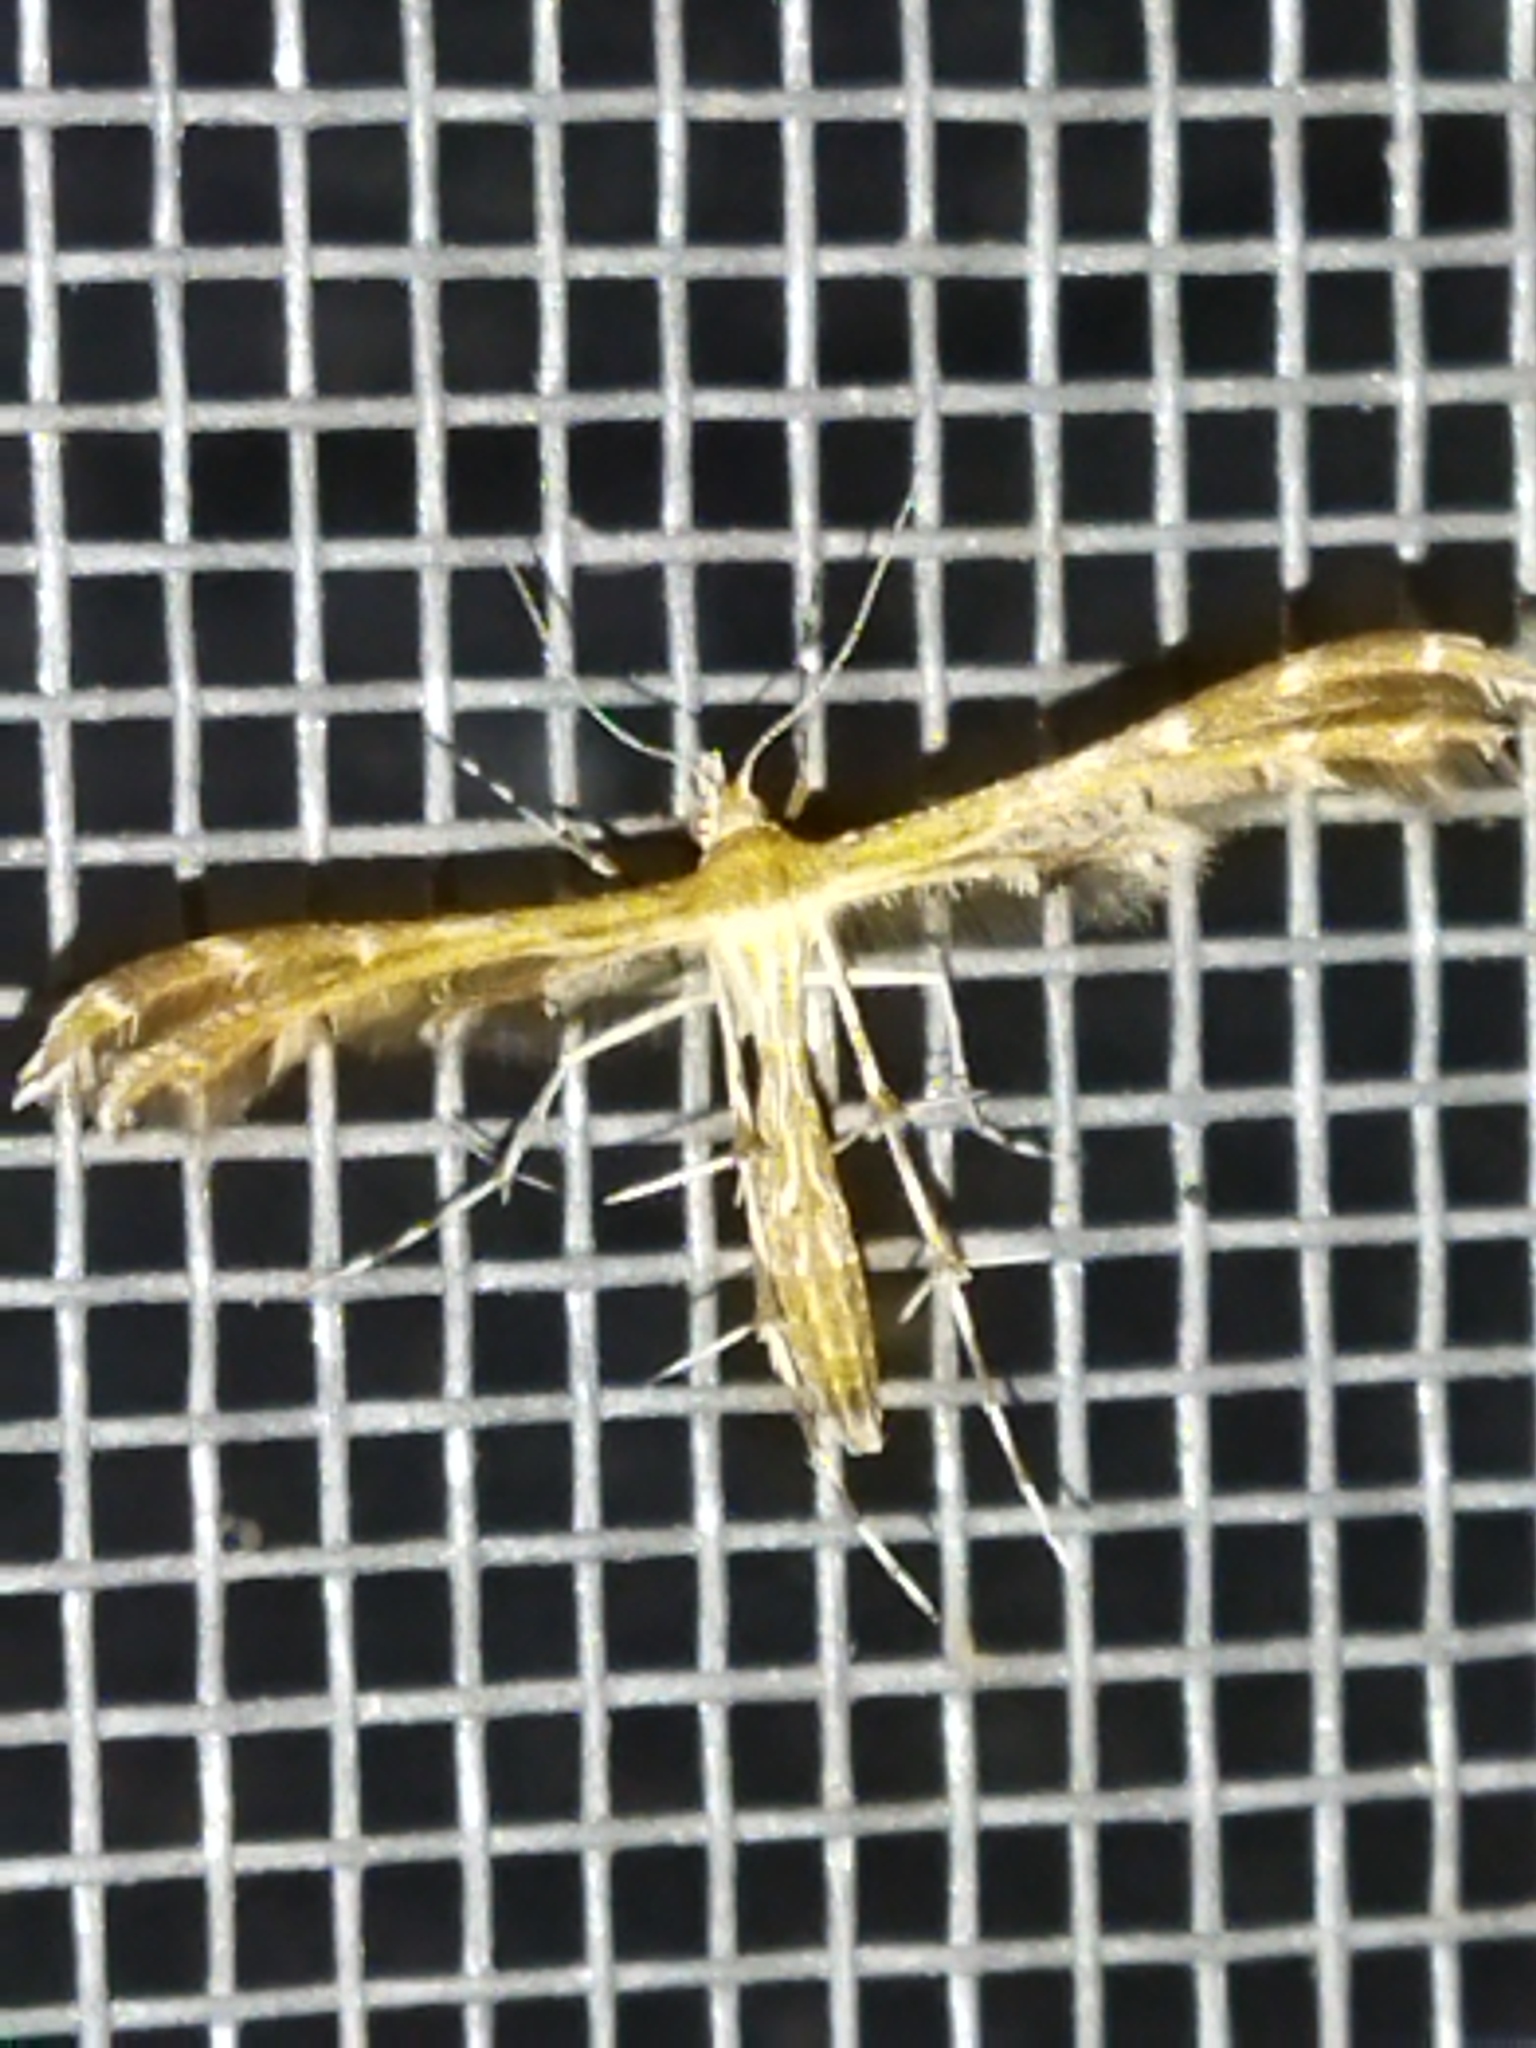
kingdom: Animalia
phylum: Arthropoda
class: Insecta
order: Lepidoptera
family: Pterophoridae
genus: Crombrugghia
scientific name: Crombrugghia
